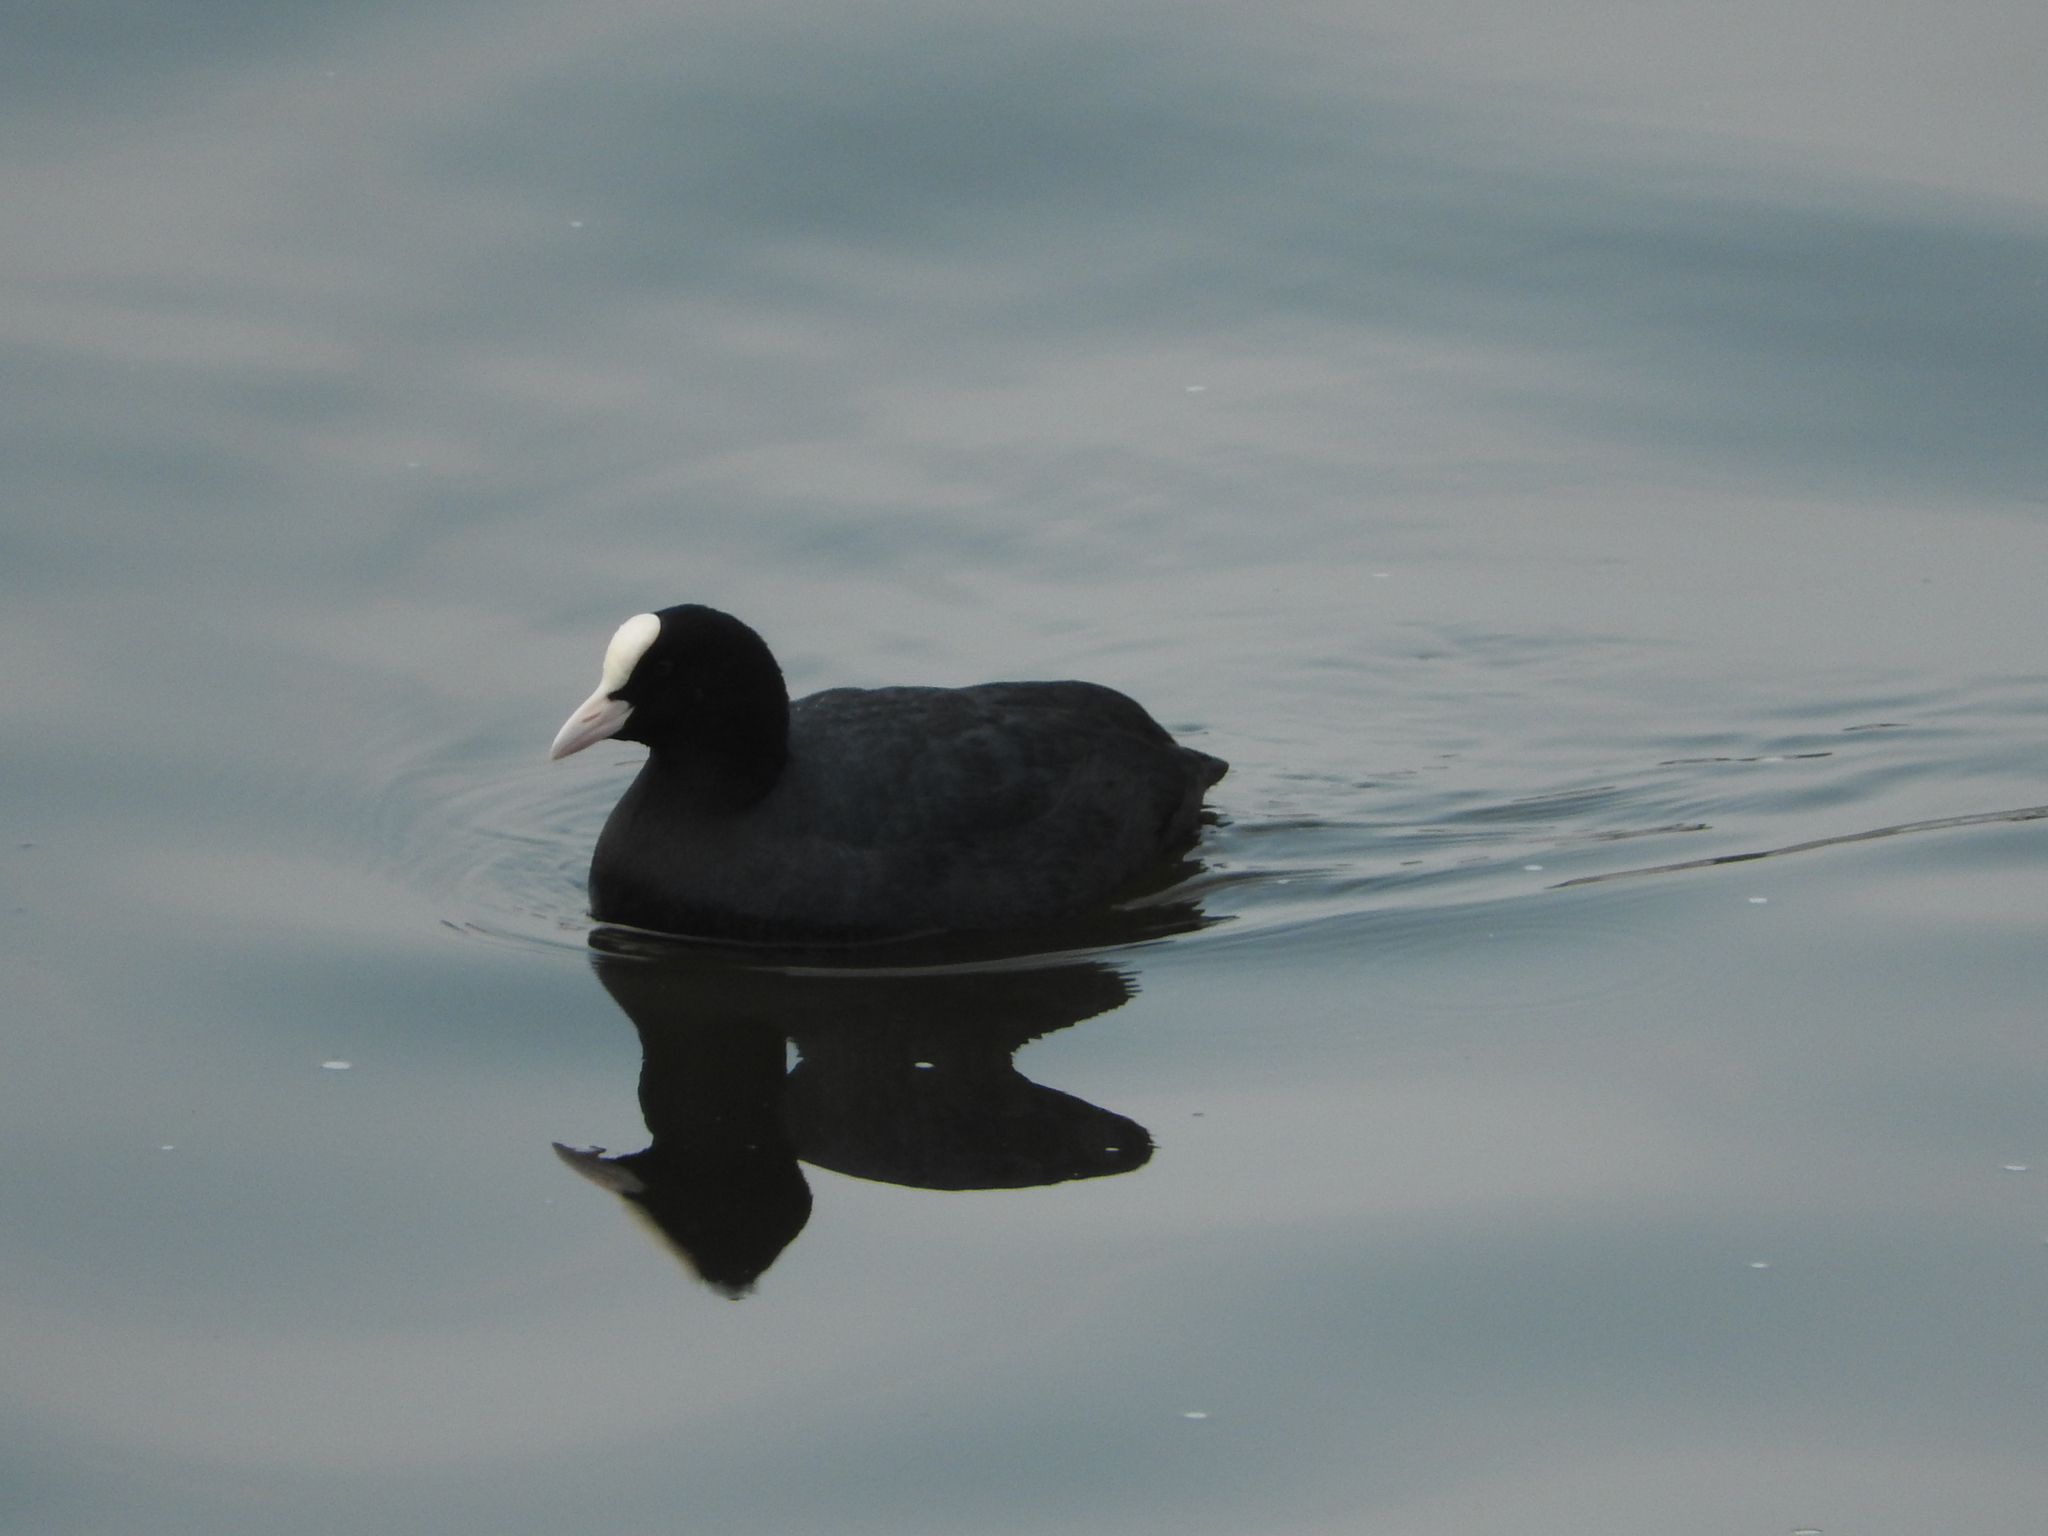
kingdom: Animalia
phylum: Chordata
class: Aves
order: Gruiformes
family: Rallidae
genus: Fulica
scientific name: Fulica atra
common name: Eurasian coot
